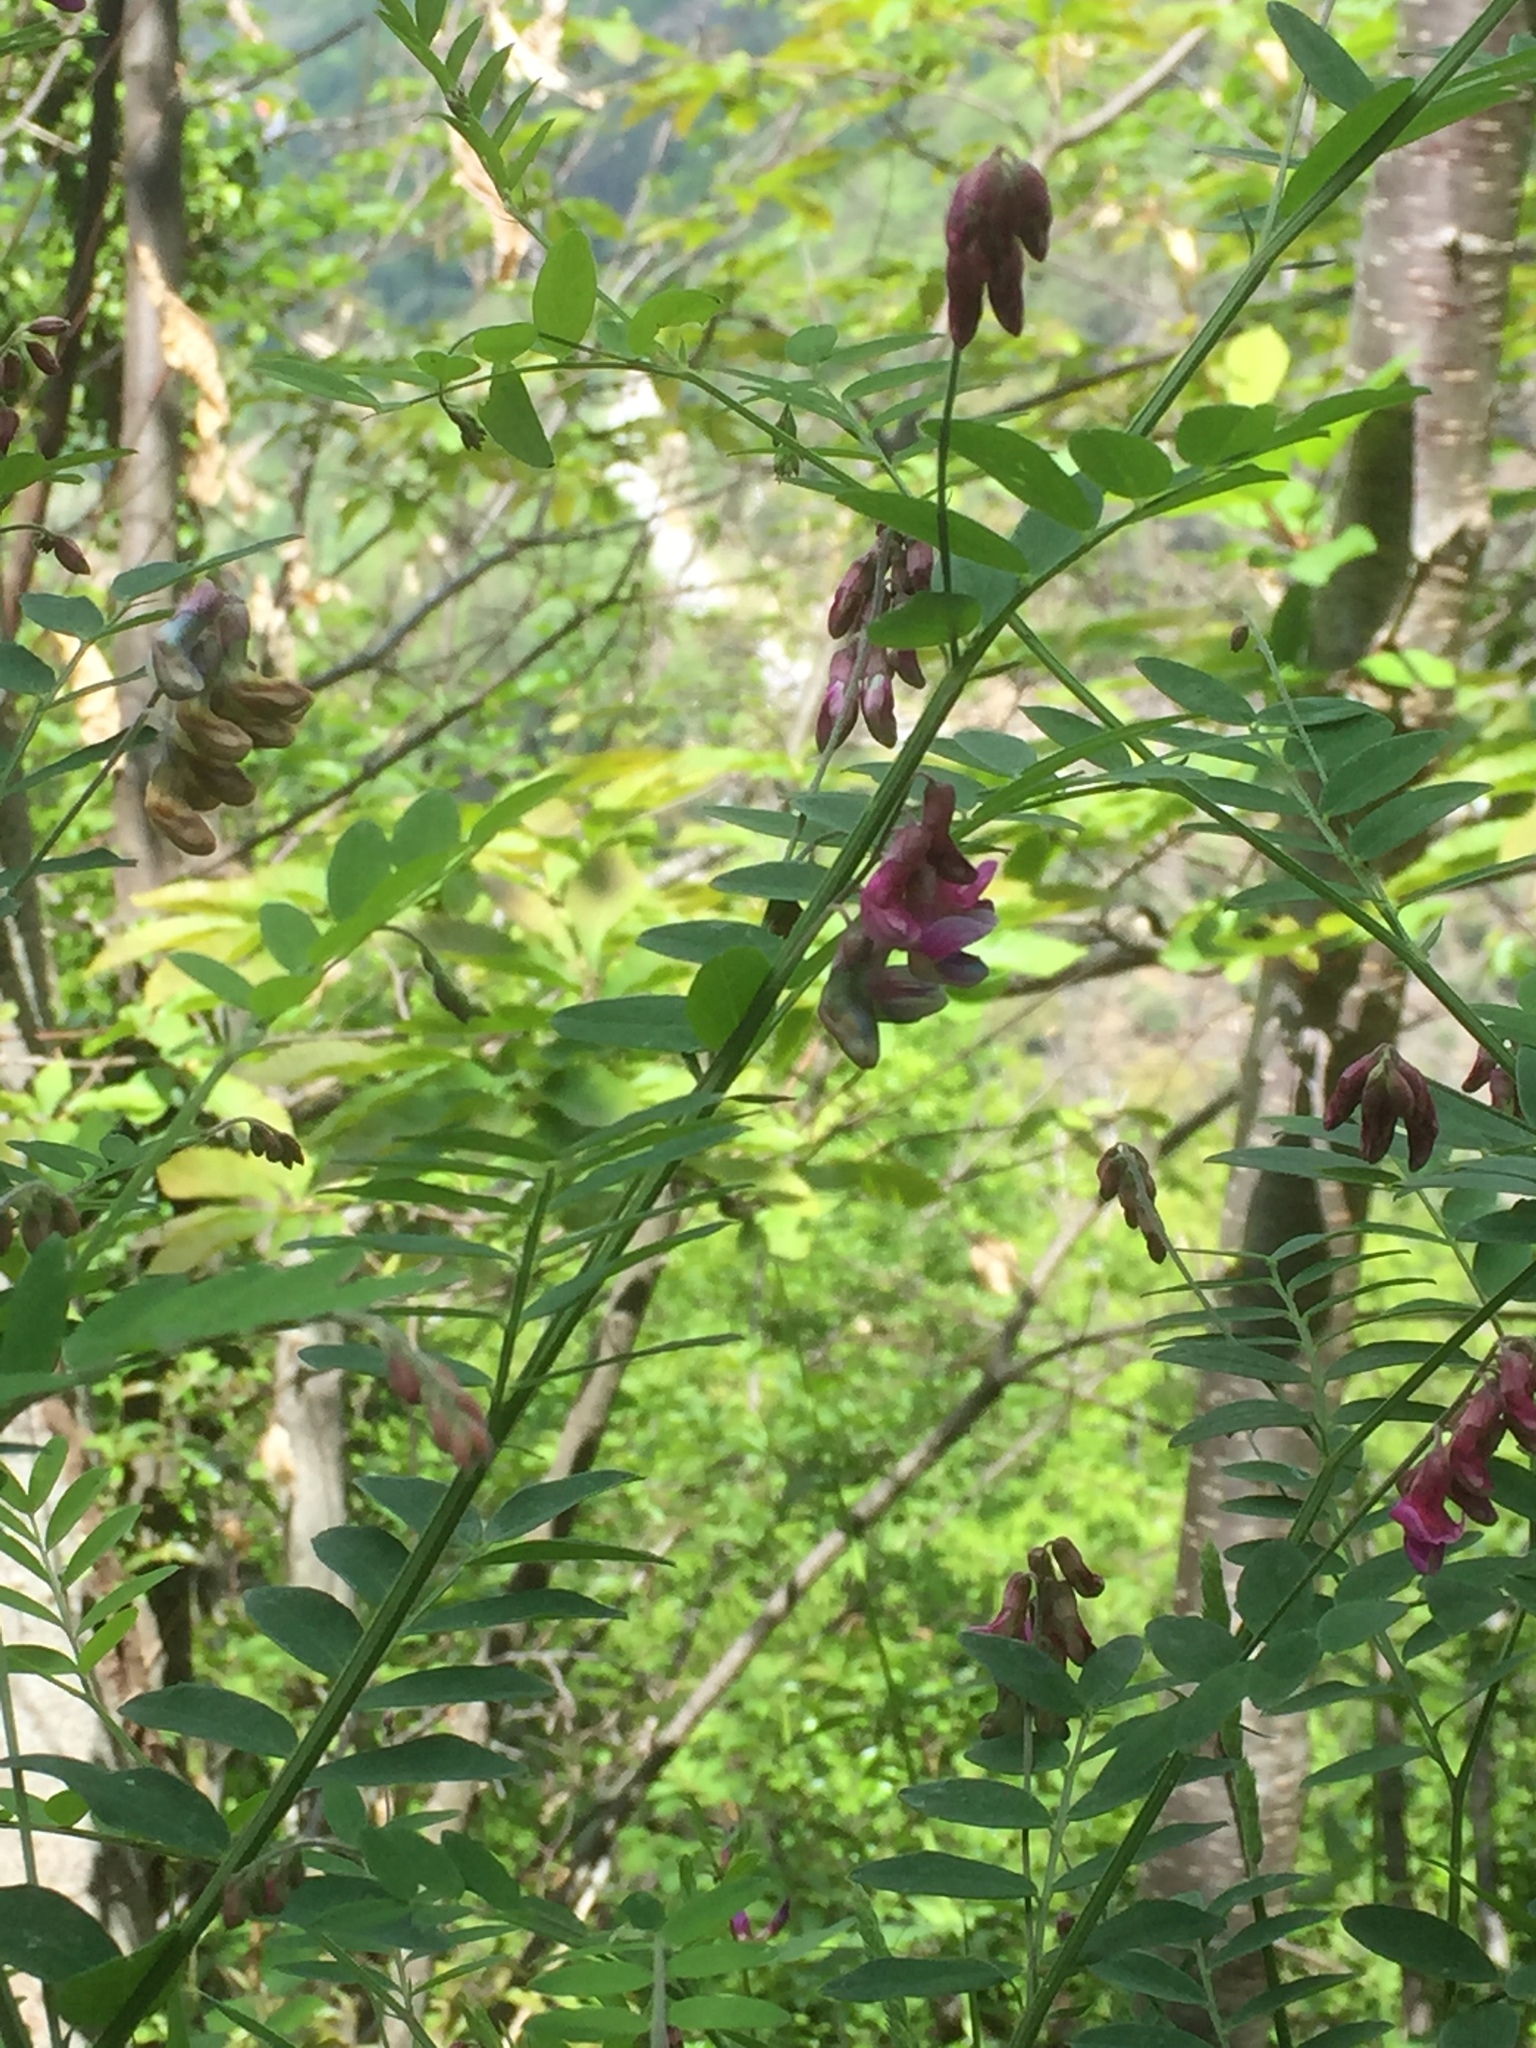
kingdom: Plantae
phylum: Tracheophyta
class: Magnoliopsida
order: Fabales
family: Fabaceae
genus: Lathyrus
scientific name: Lathyrus niger
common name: Black pea
